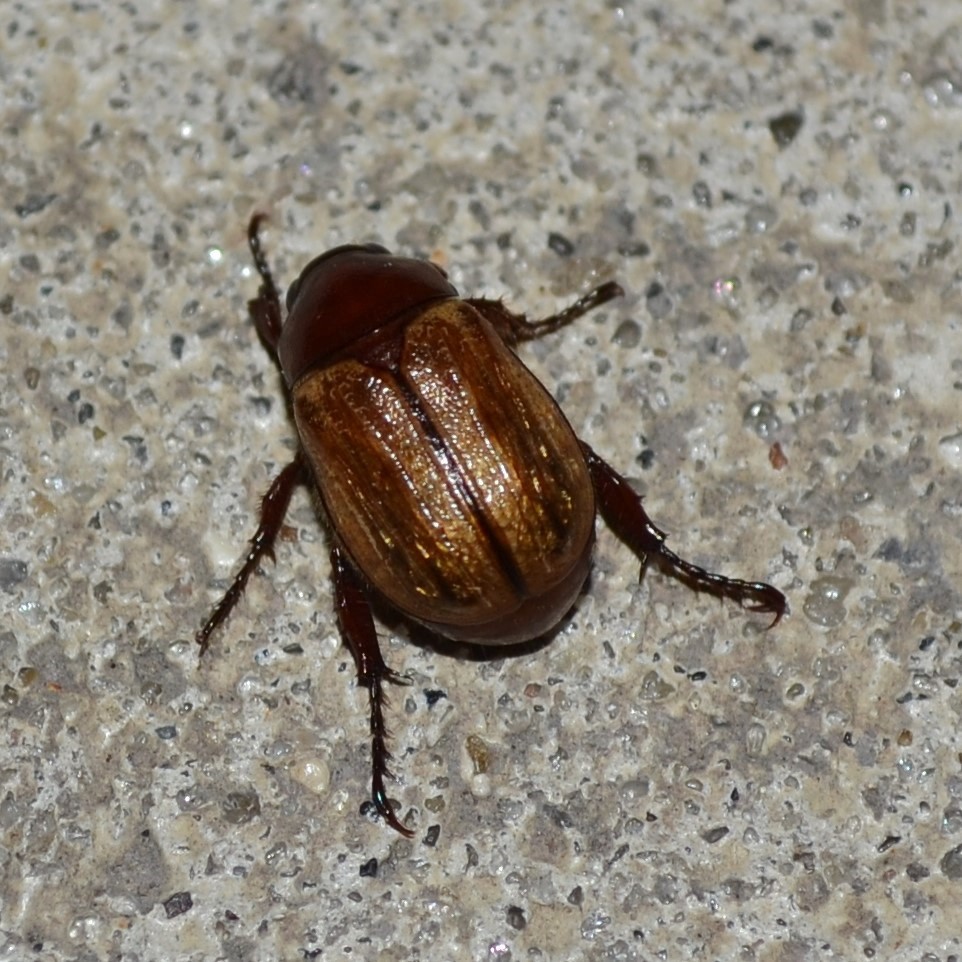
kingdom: Animalia
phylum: Arthropoda
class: Insecta
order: Coleoptera
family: Scarabaeidae
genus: Paranomala
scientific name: Paranomala flavipennis
